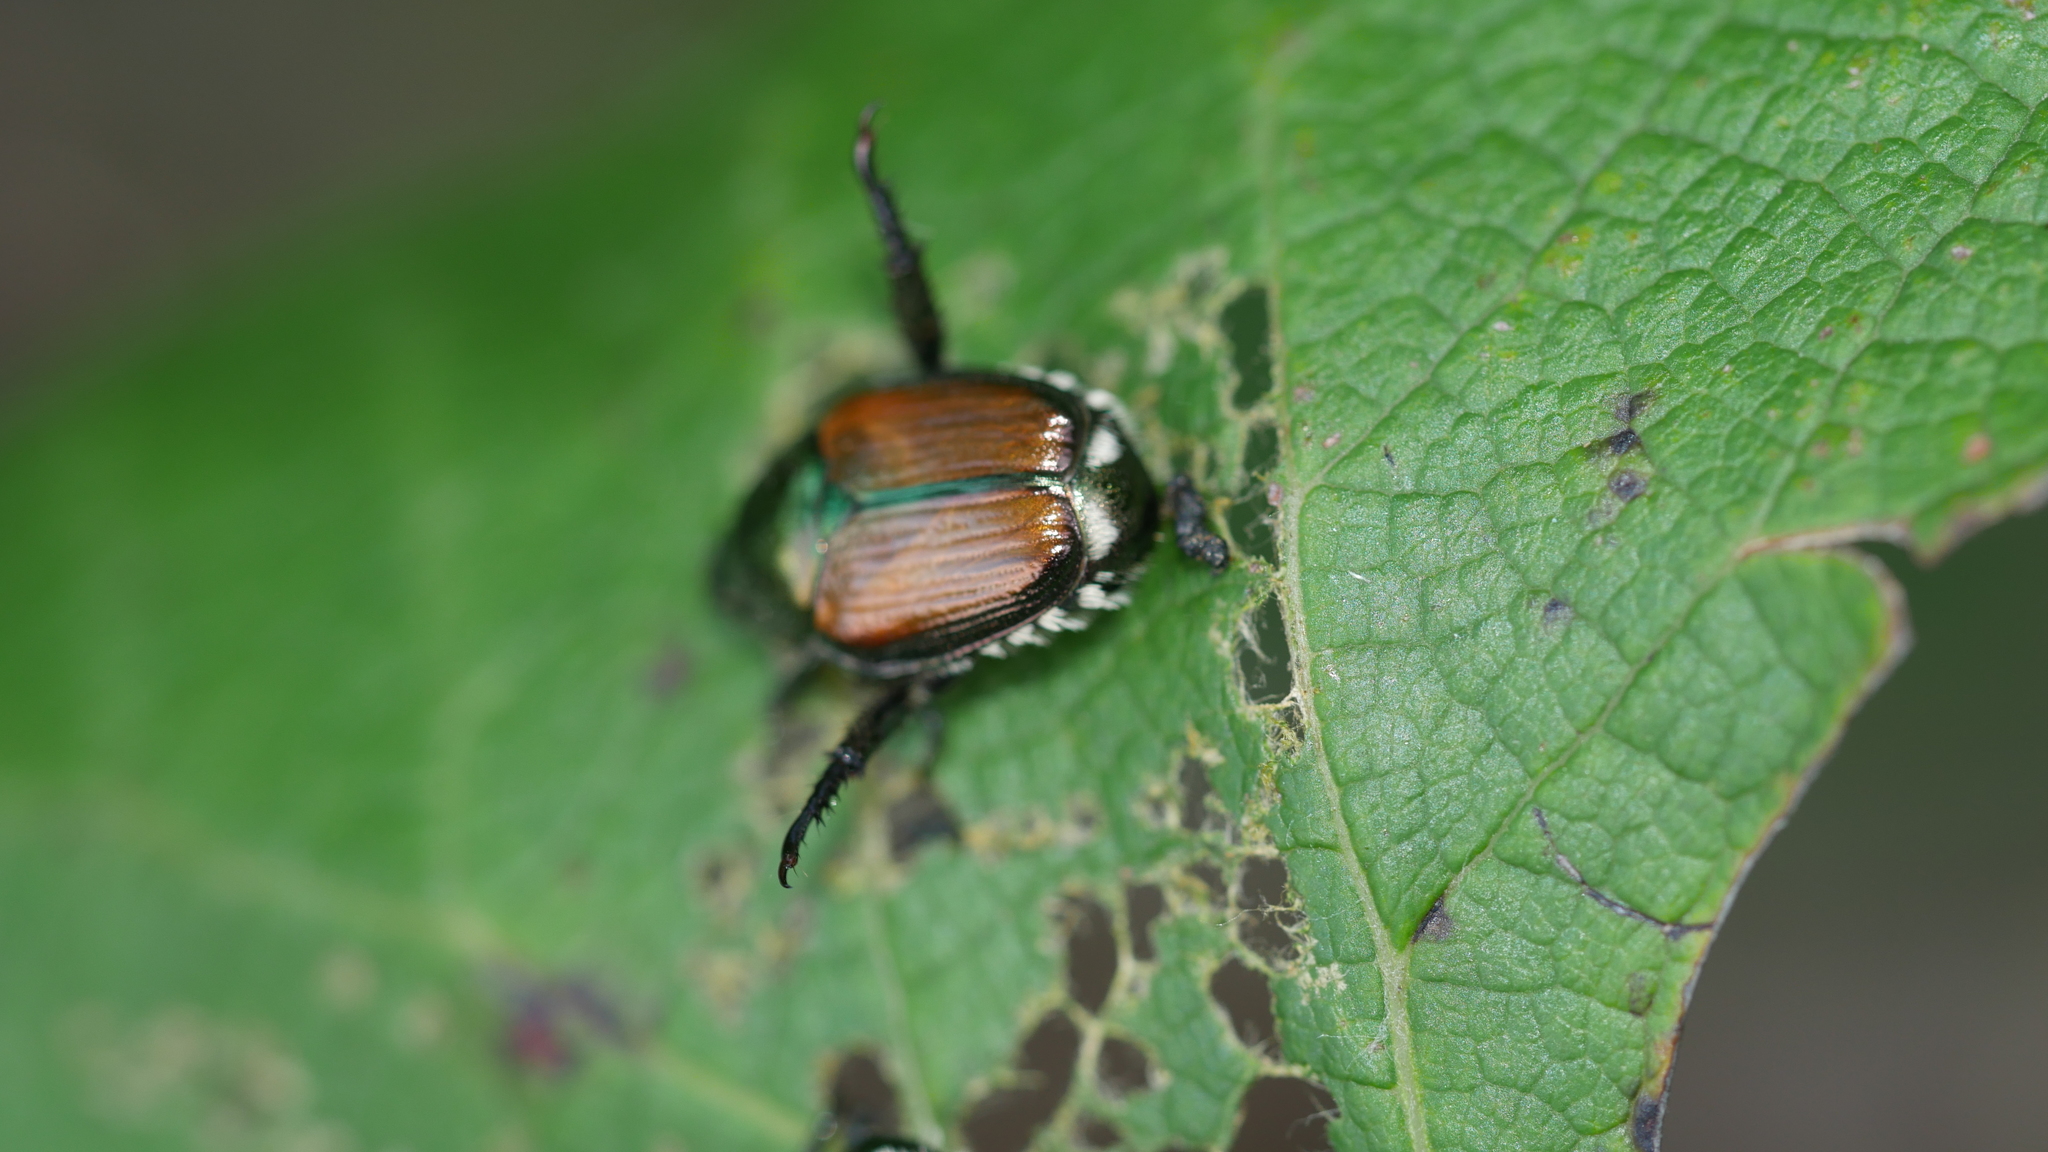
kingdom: Animalia
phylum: Arthropoda
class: Insecta
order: Coleoptera
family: Scarabaeidae
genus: Popillia
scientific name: Popillia japonica
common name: Japanese beetle
